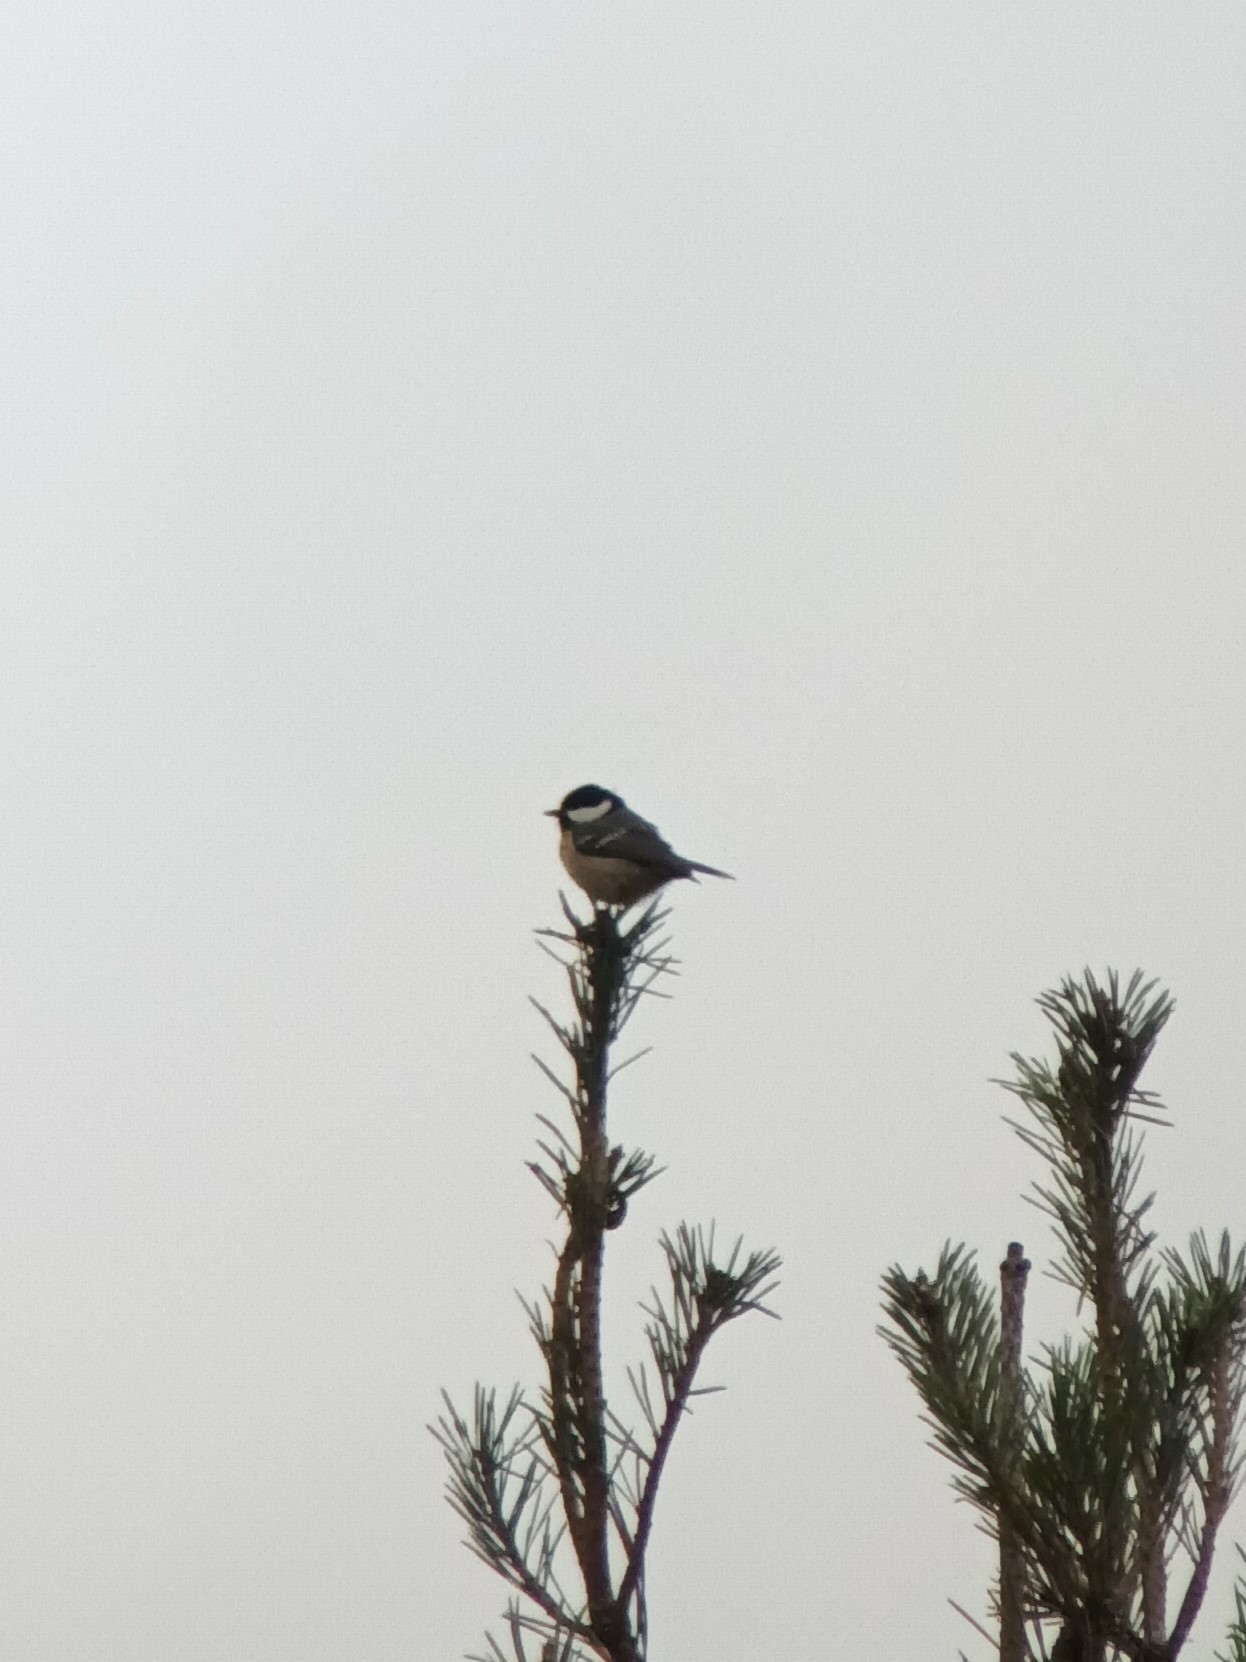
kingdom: Animalia
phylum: Chordata
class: Aves
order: Passeriformes
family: Paridae
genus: Periparus
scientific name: Periparus ater
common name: Coal tit
